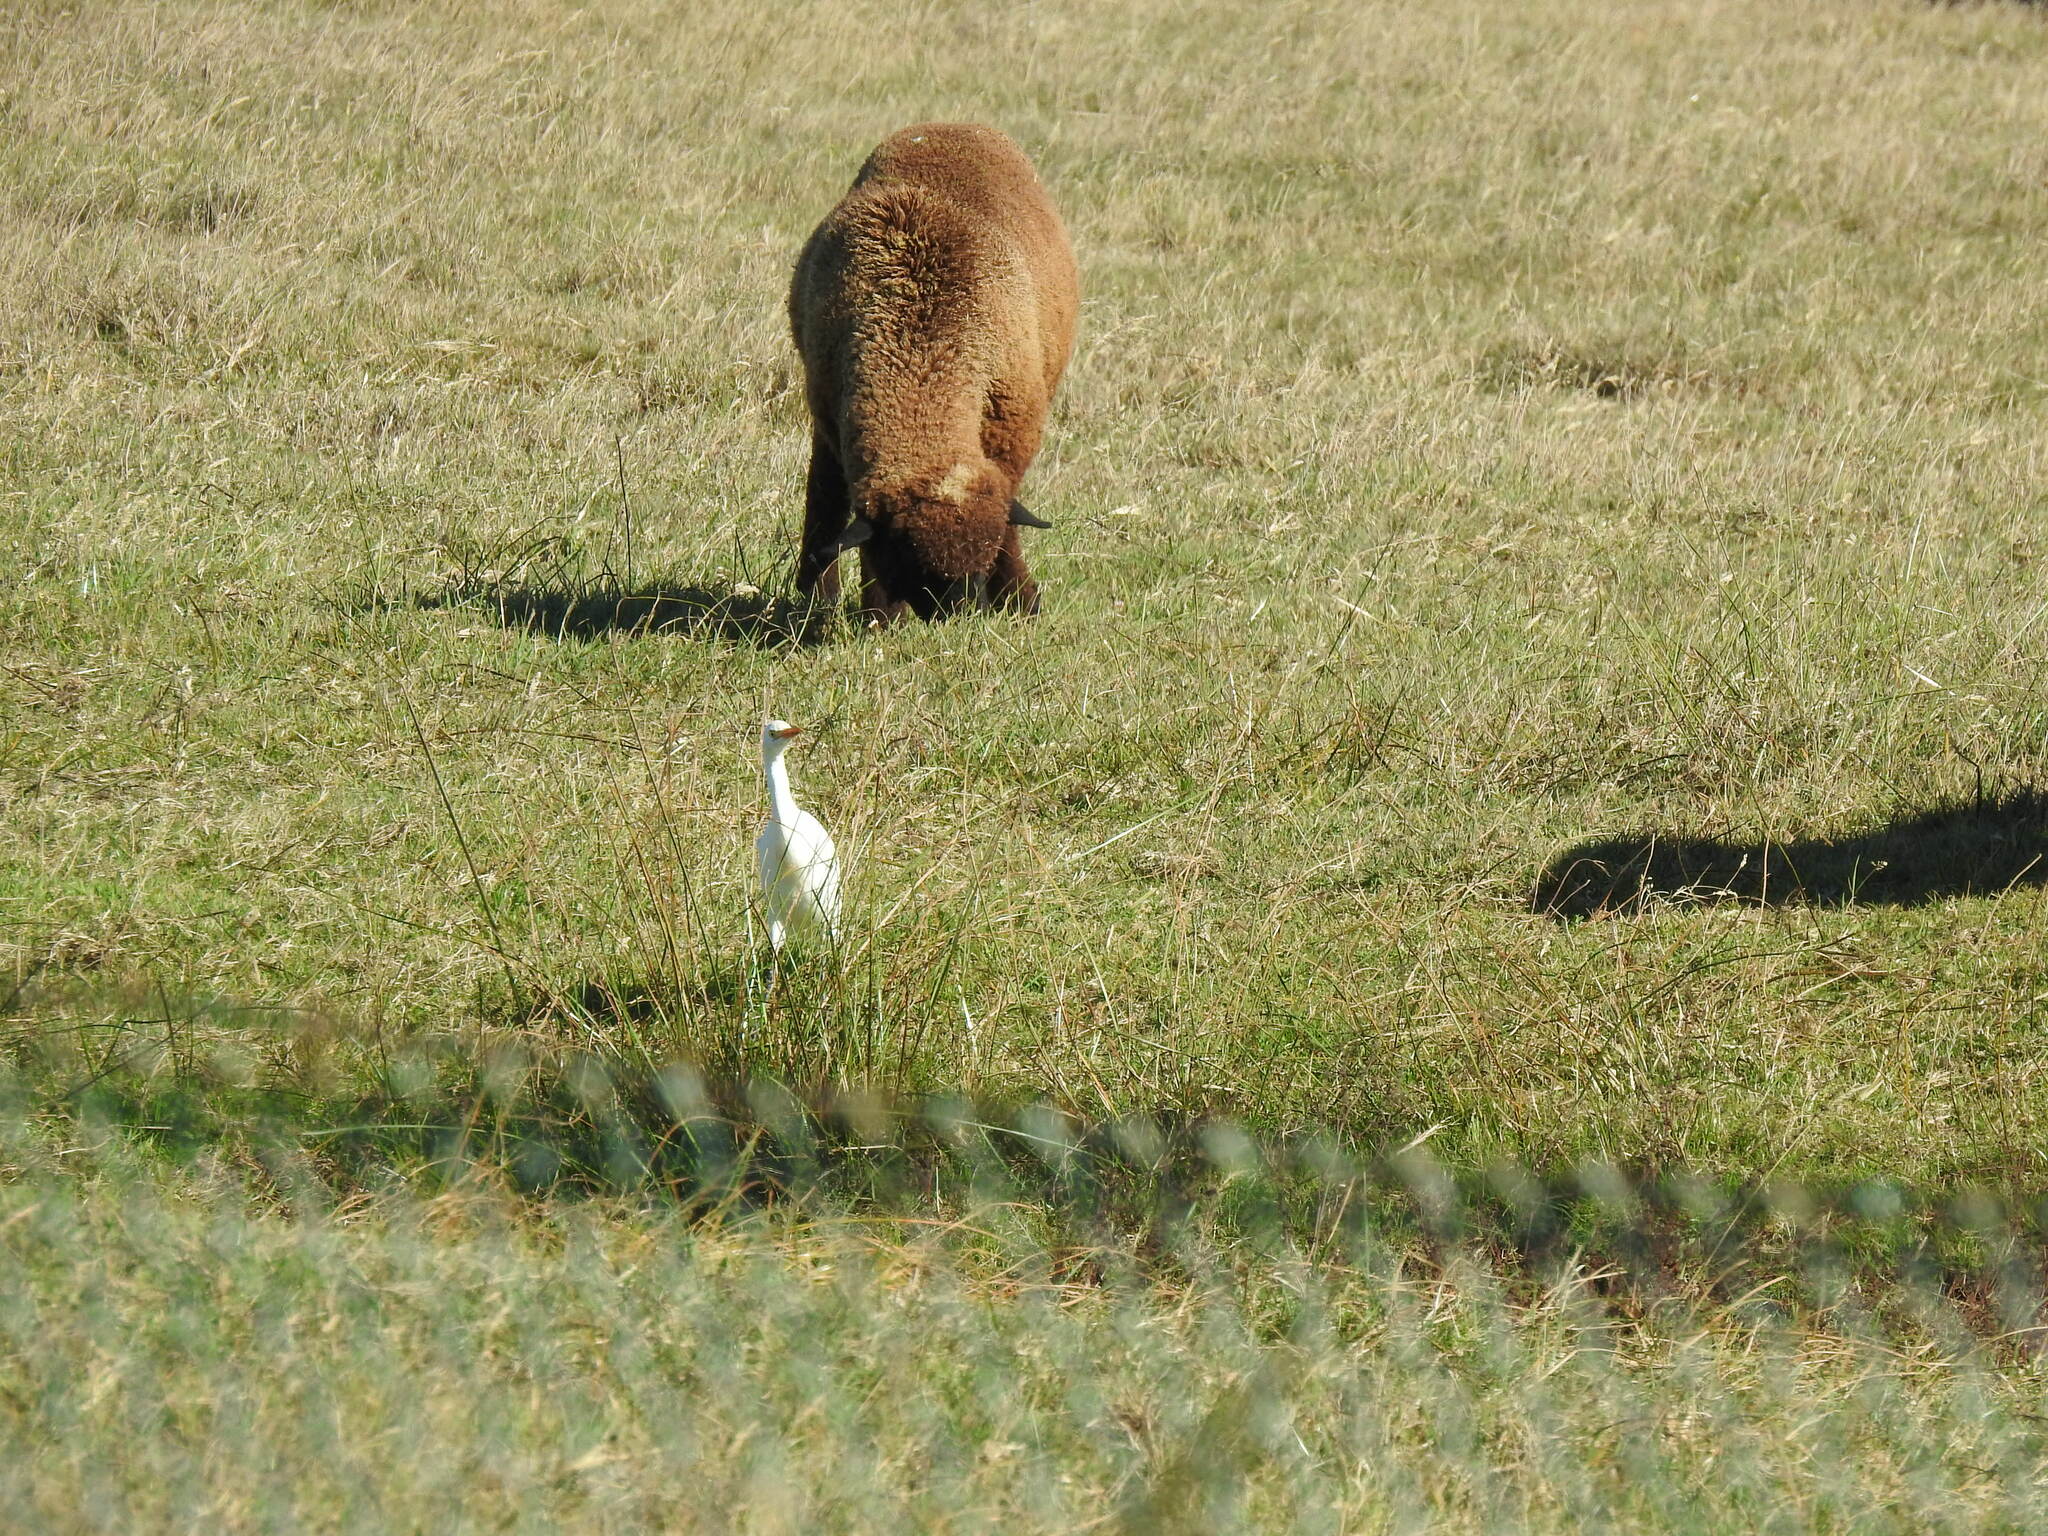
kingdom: Animalia
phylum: Chordata
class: Aves
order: Pelecaniformes
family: Ardeidae
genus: Bubulcus
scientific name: Bubulcus ibis
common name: Cattle egret
